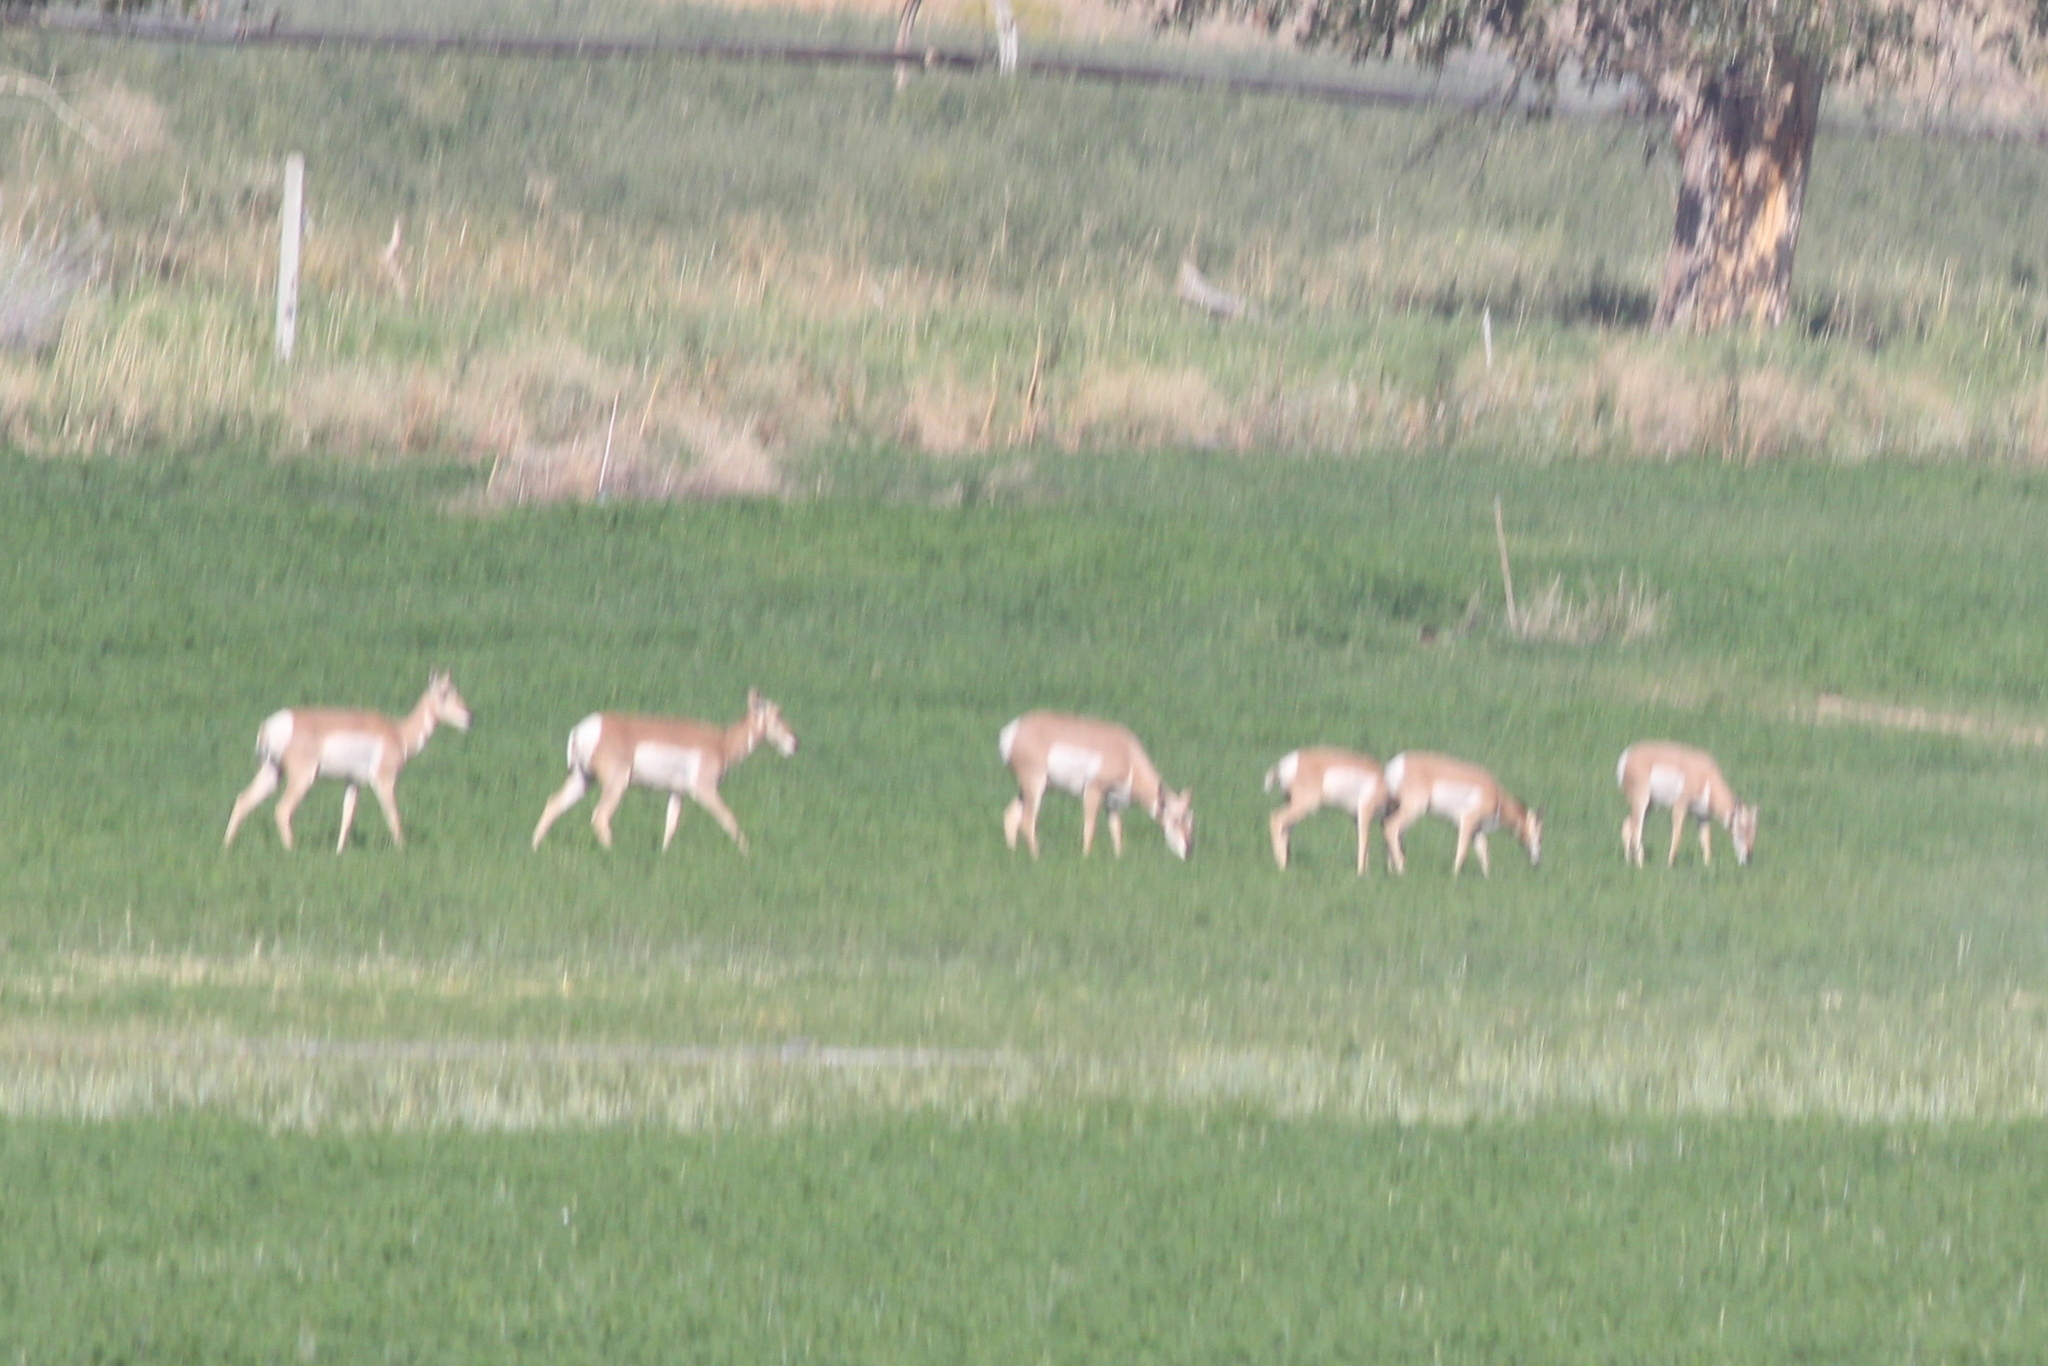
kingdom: Animalia
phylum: Chordata
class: Mammalia
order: Artiodactyla
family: Antilocapridae
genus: Antilocapra
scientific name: Antilocapra americana
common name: Pronghorn
